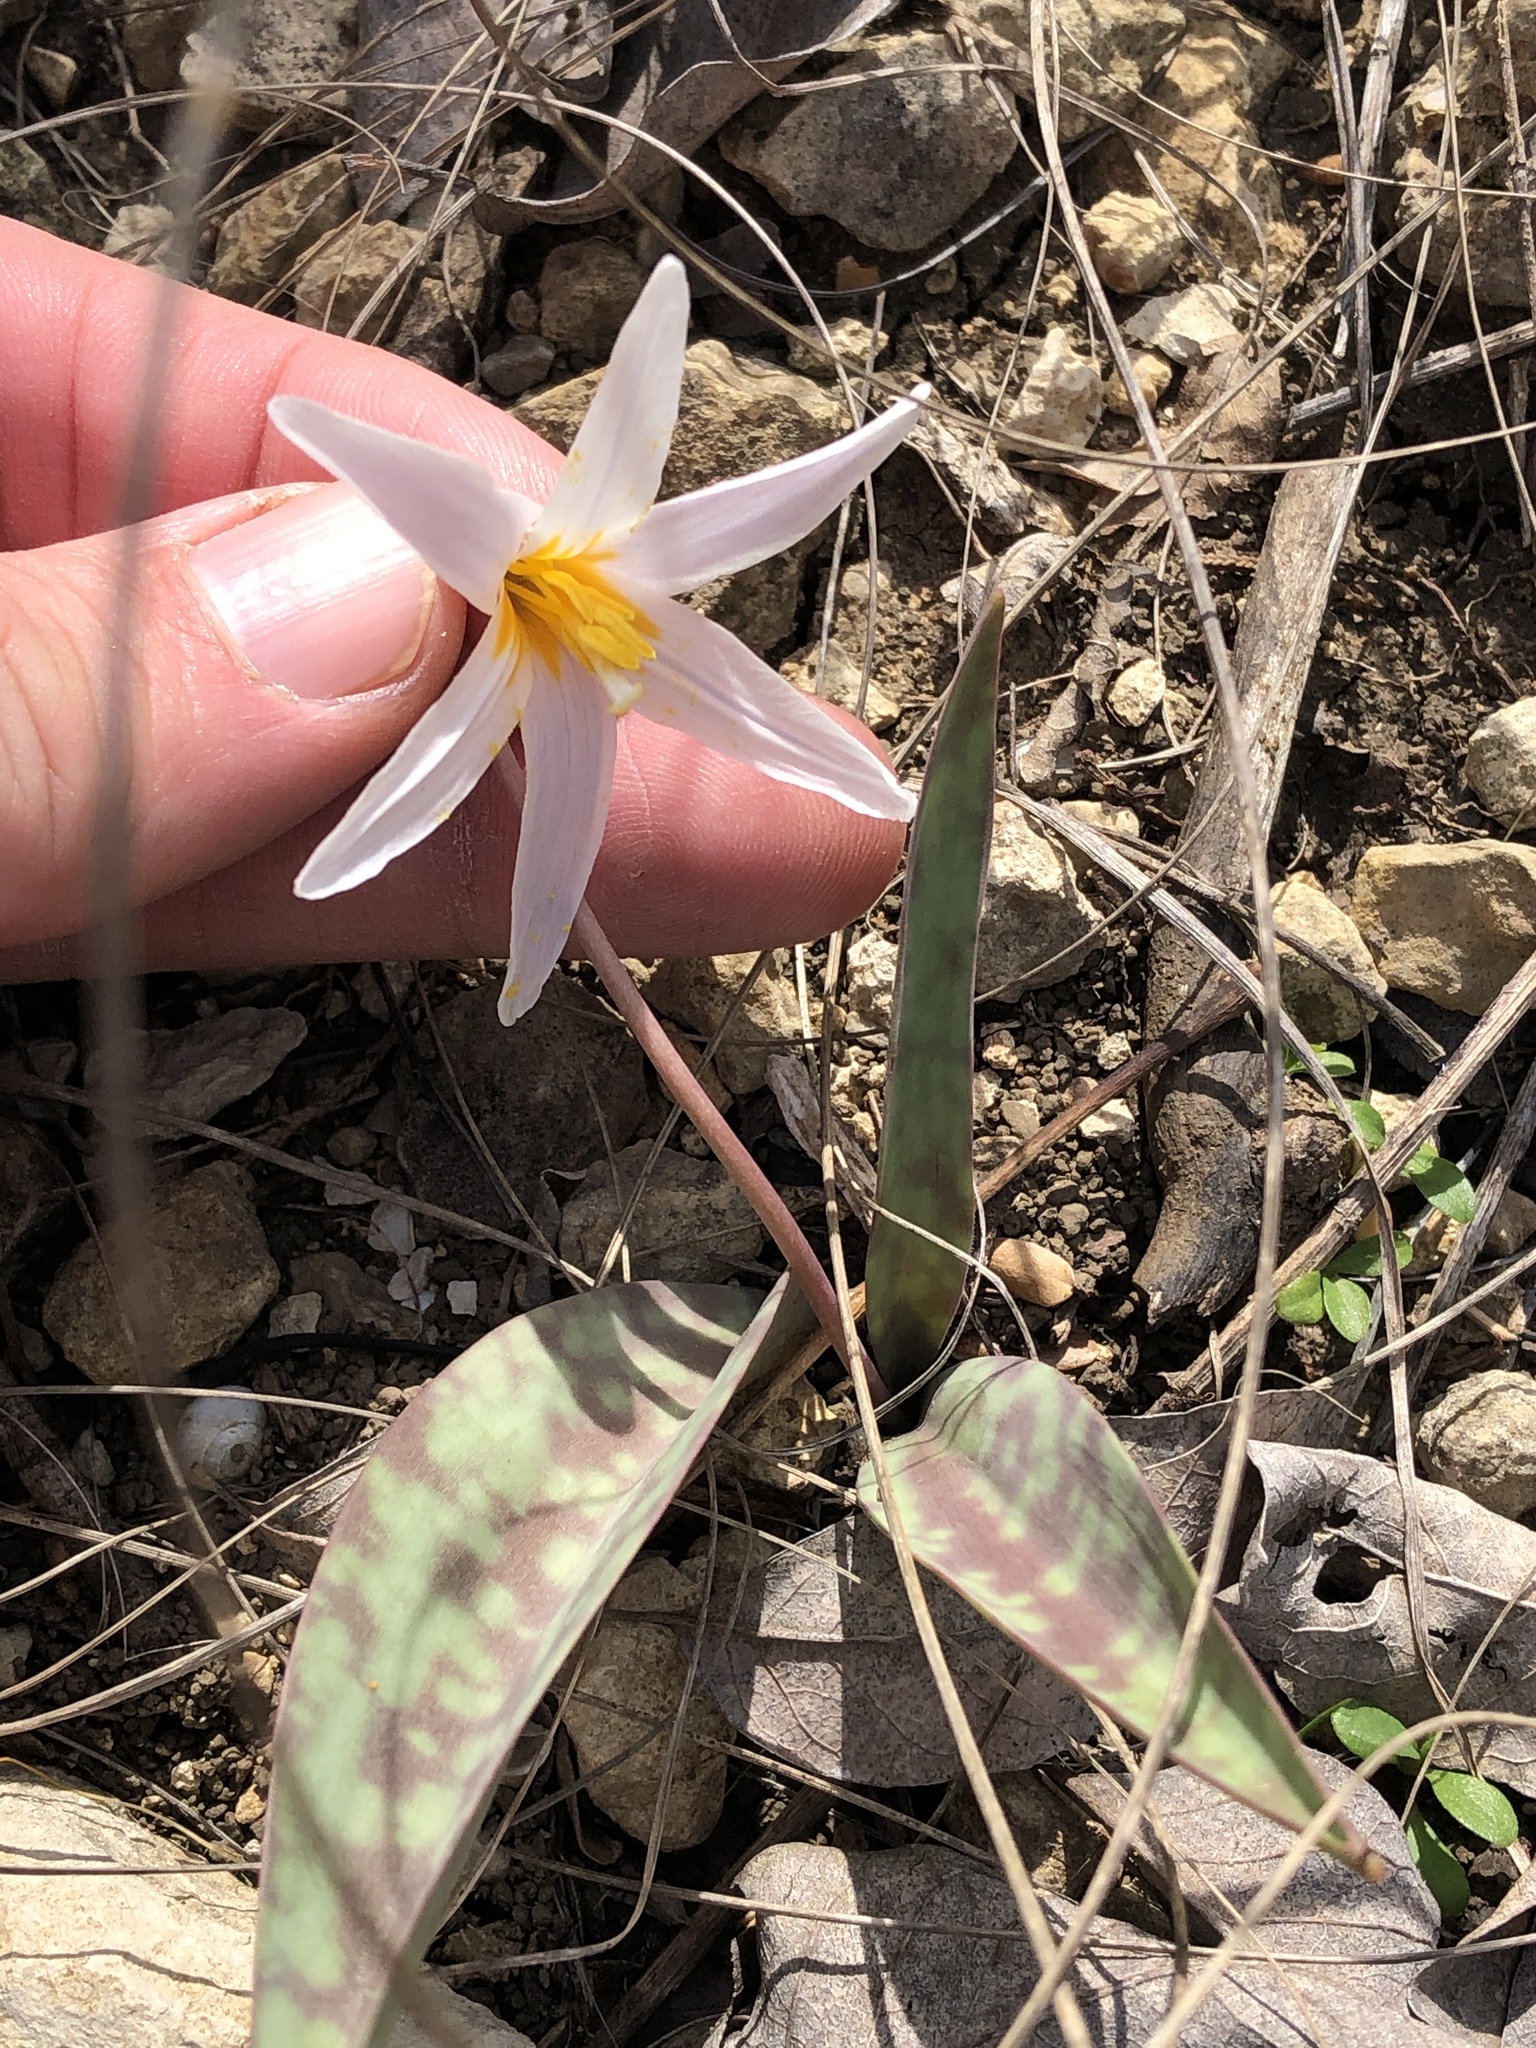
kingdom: Plantae
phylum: Tracheophyta
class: Liliopsida
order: Liliales
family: Liliaceae
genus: Erythronium
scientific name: Erythronium albidum
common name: White trout-lily
